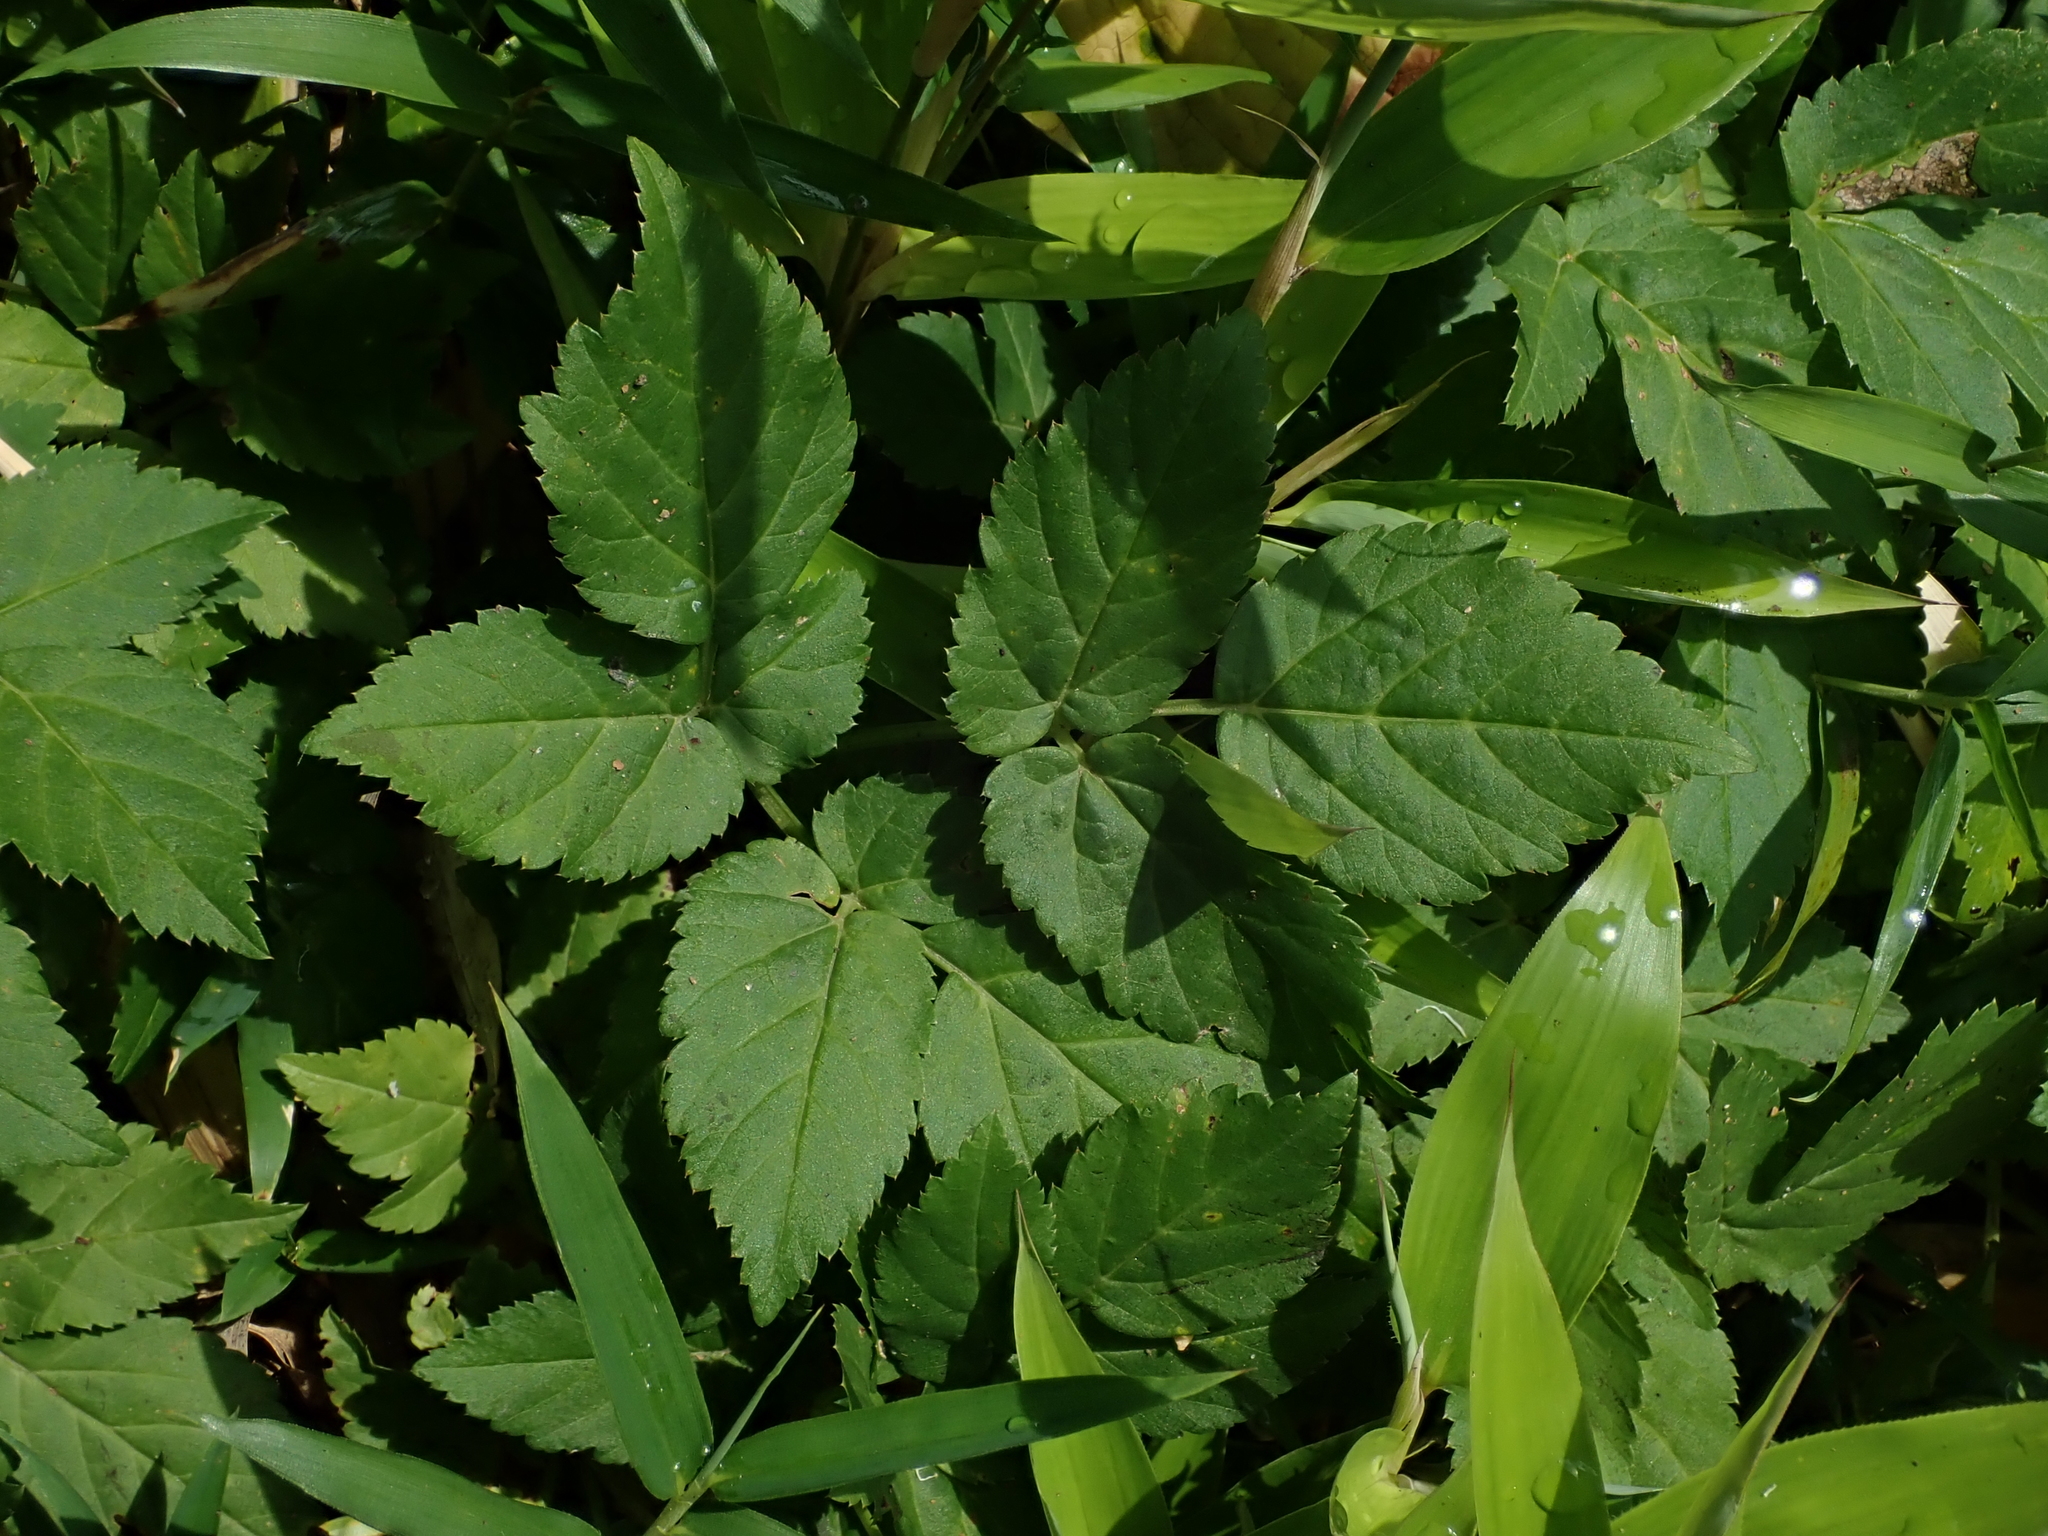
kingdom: Plantae
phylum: Tracheophyta
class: Magnoliopsida
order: Apiales
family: Apiaceae
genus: Aegopodium
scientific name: Aegopodium podagraria
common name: Ground-elder
